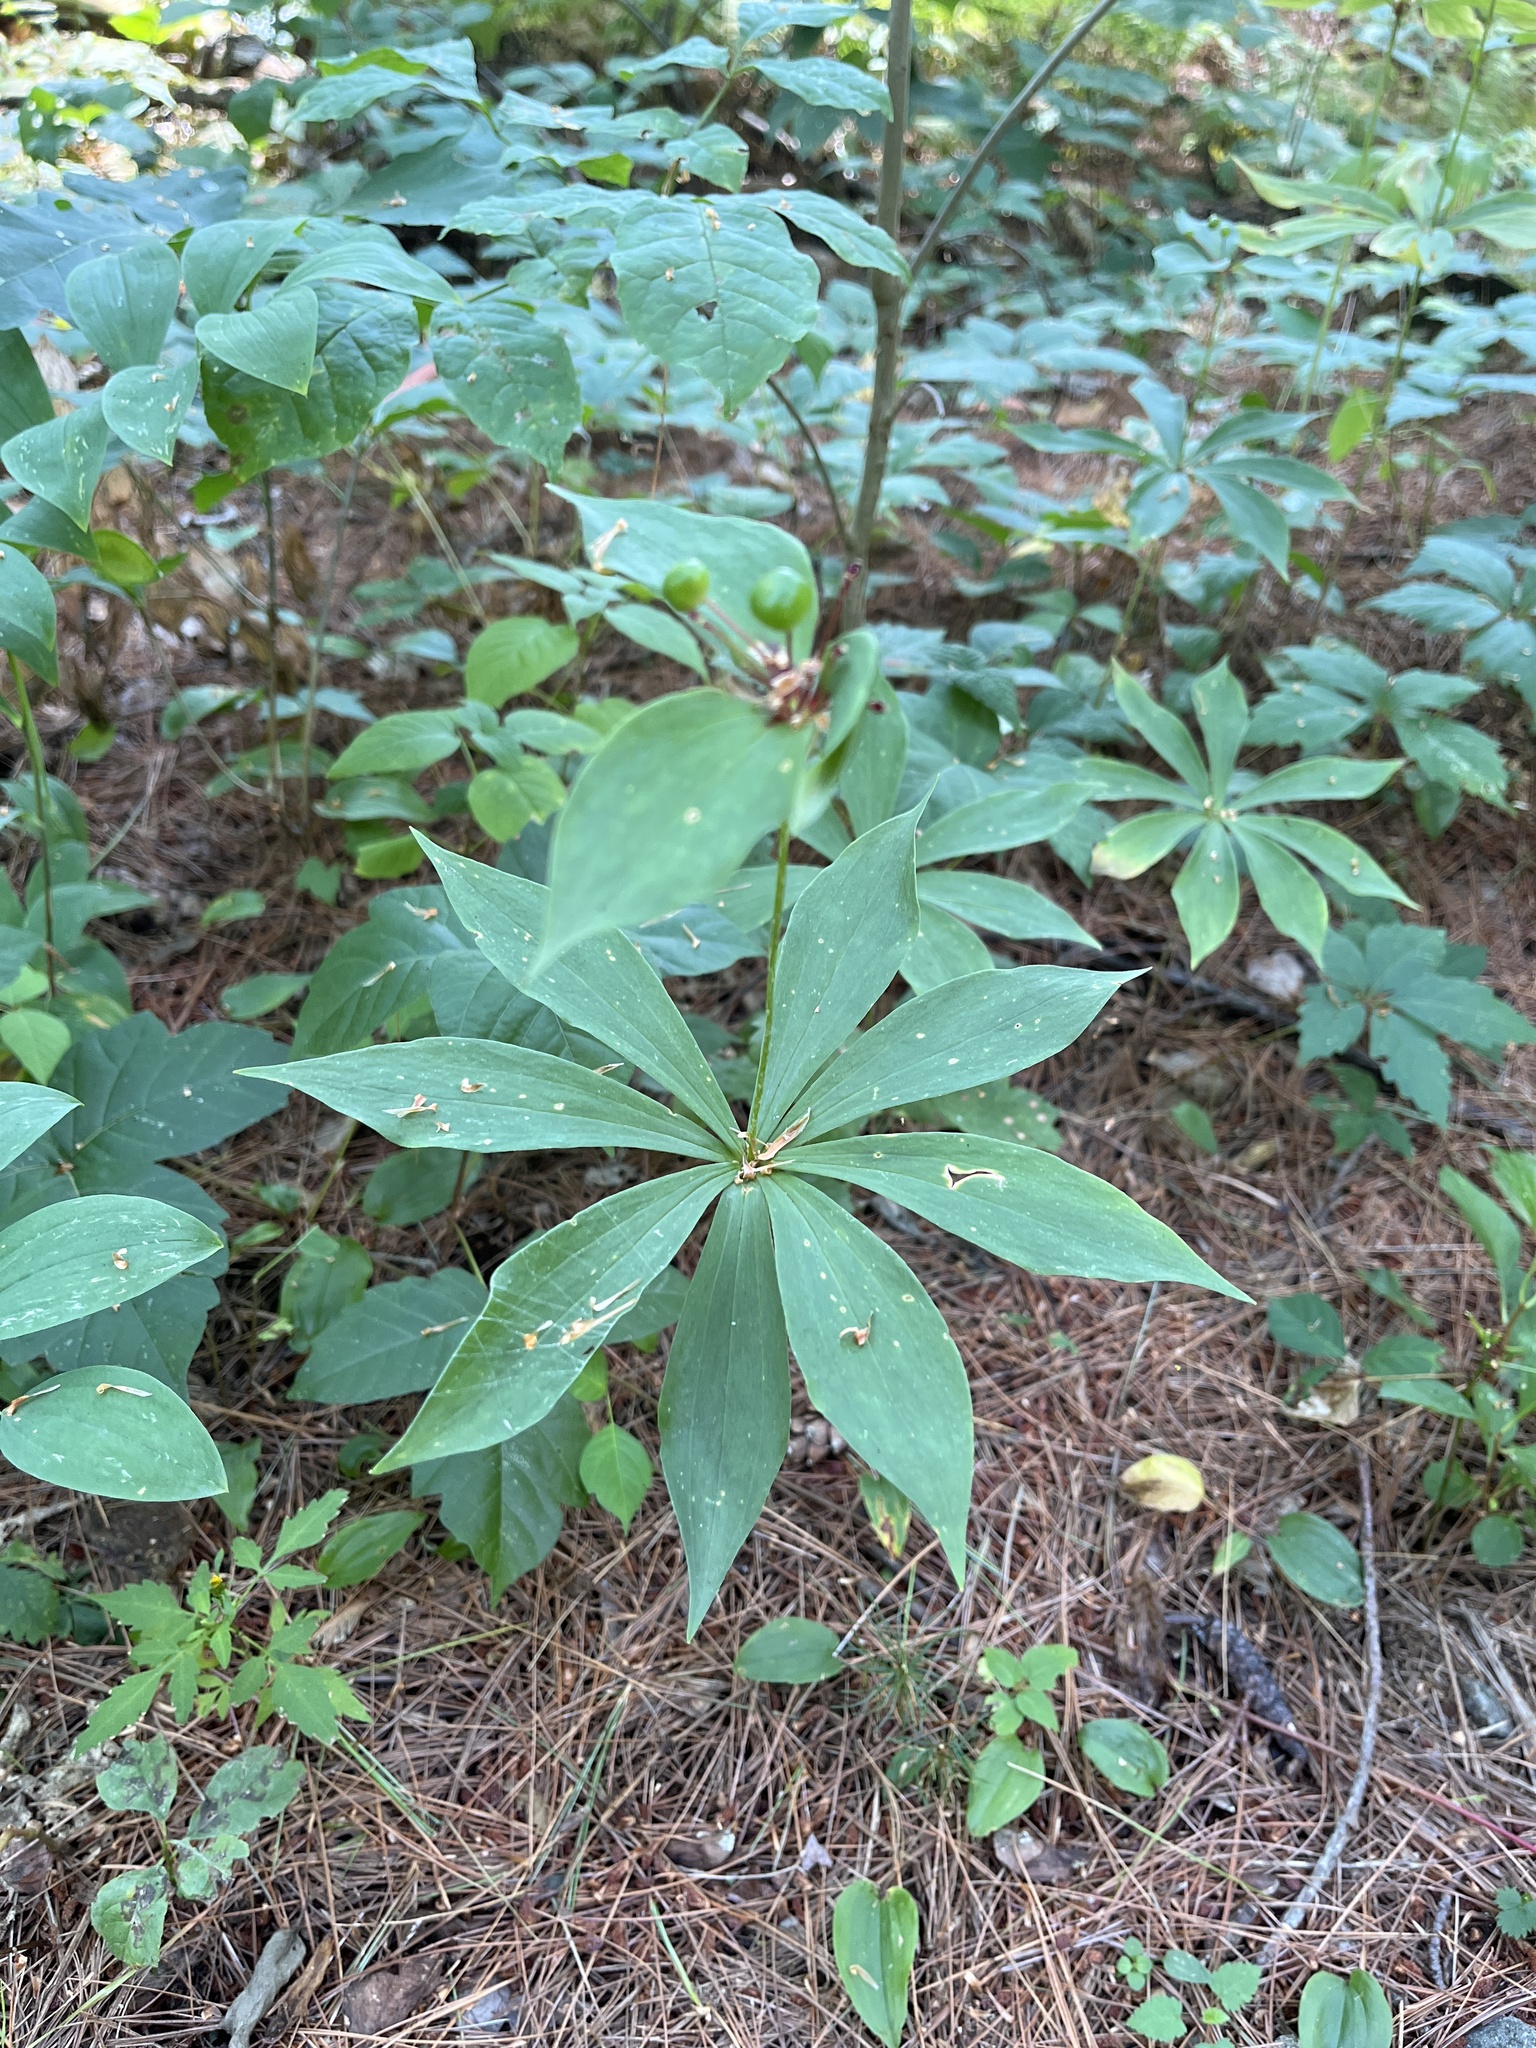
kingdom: Plantae
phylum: Tracheophyta
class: Liliopsida
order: Liliales
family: Liliaceae
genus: Medeola
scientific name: Medeola virginiana
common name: Indian cucumber-root
